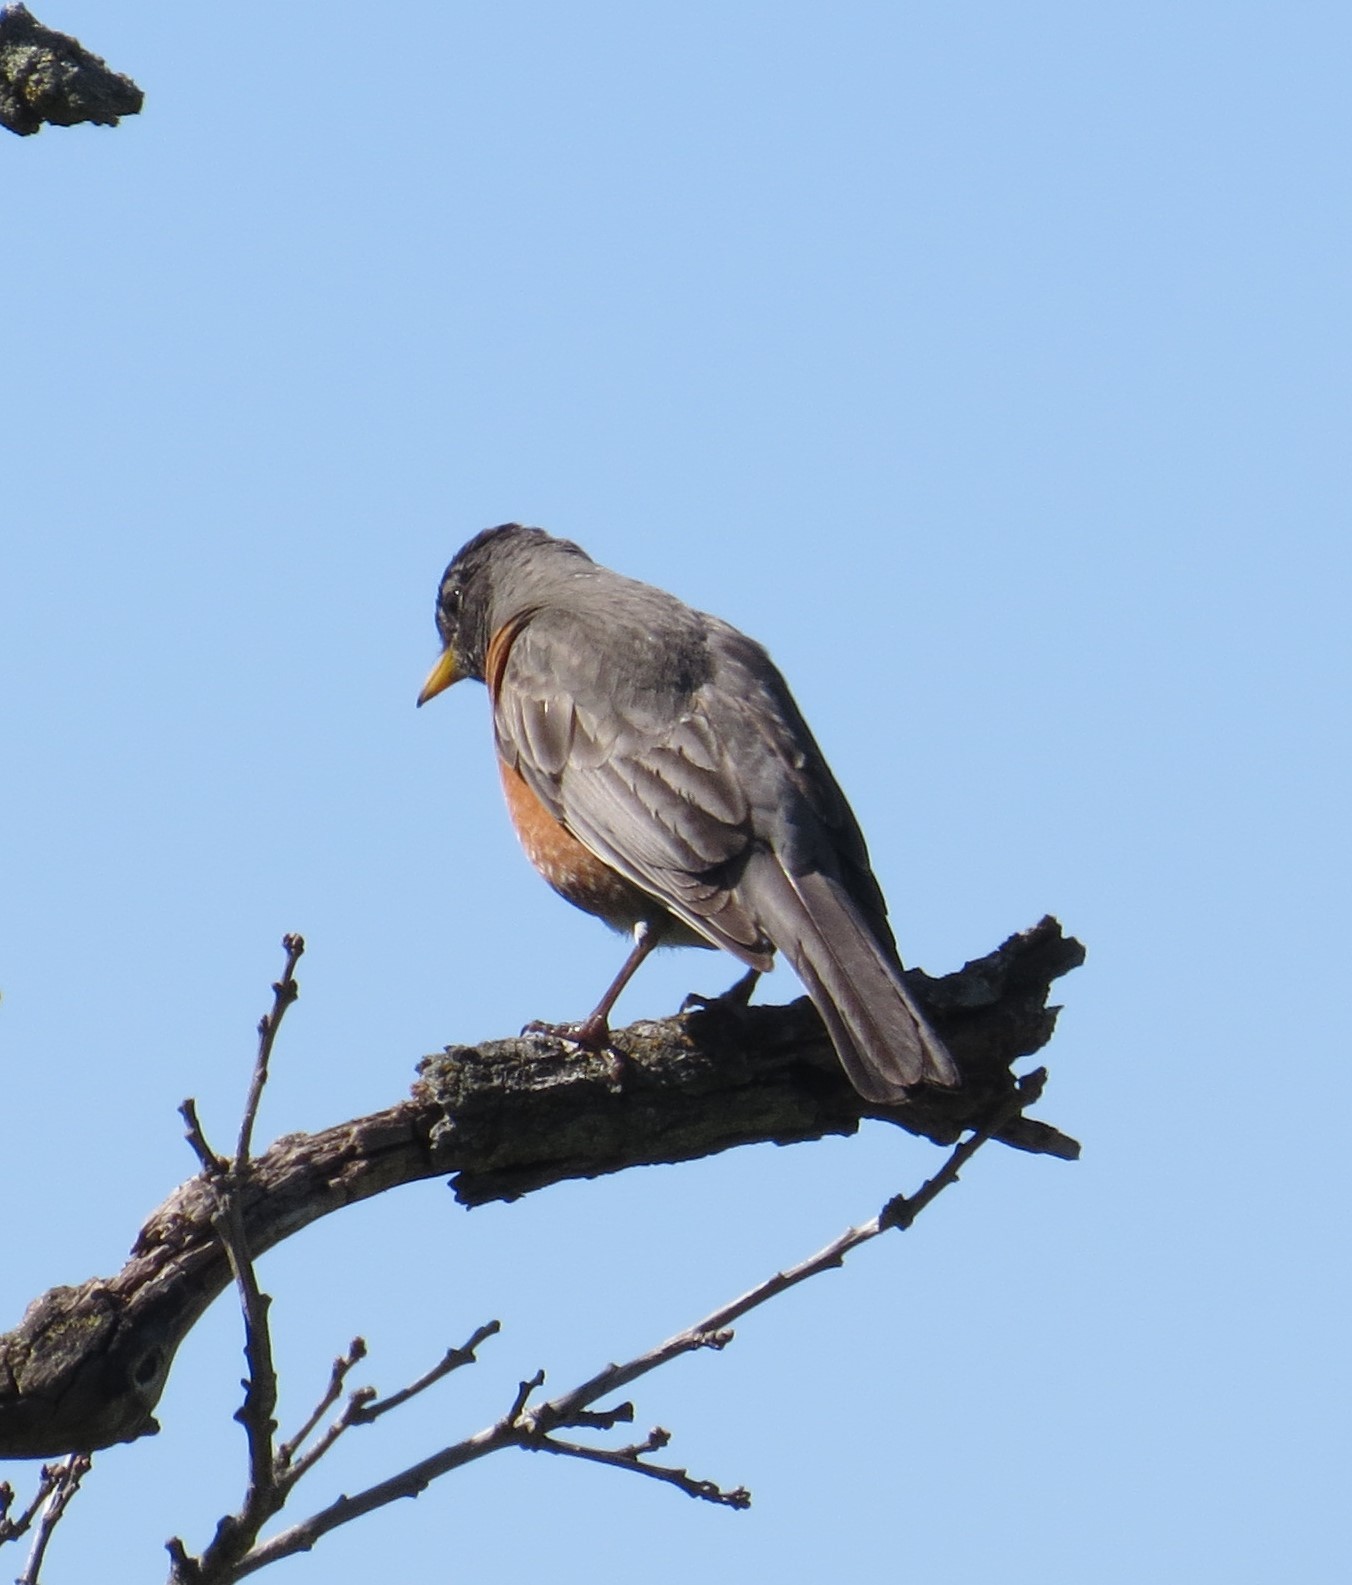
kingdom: Animalia
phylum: Chordata
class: Aves
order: Passeriformes
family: Turdidae
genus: Turdus
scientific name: Turdus migratorius
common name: American robin
